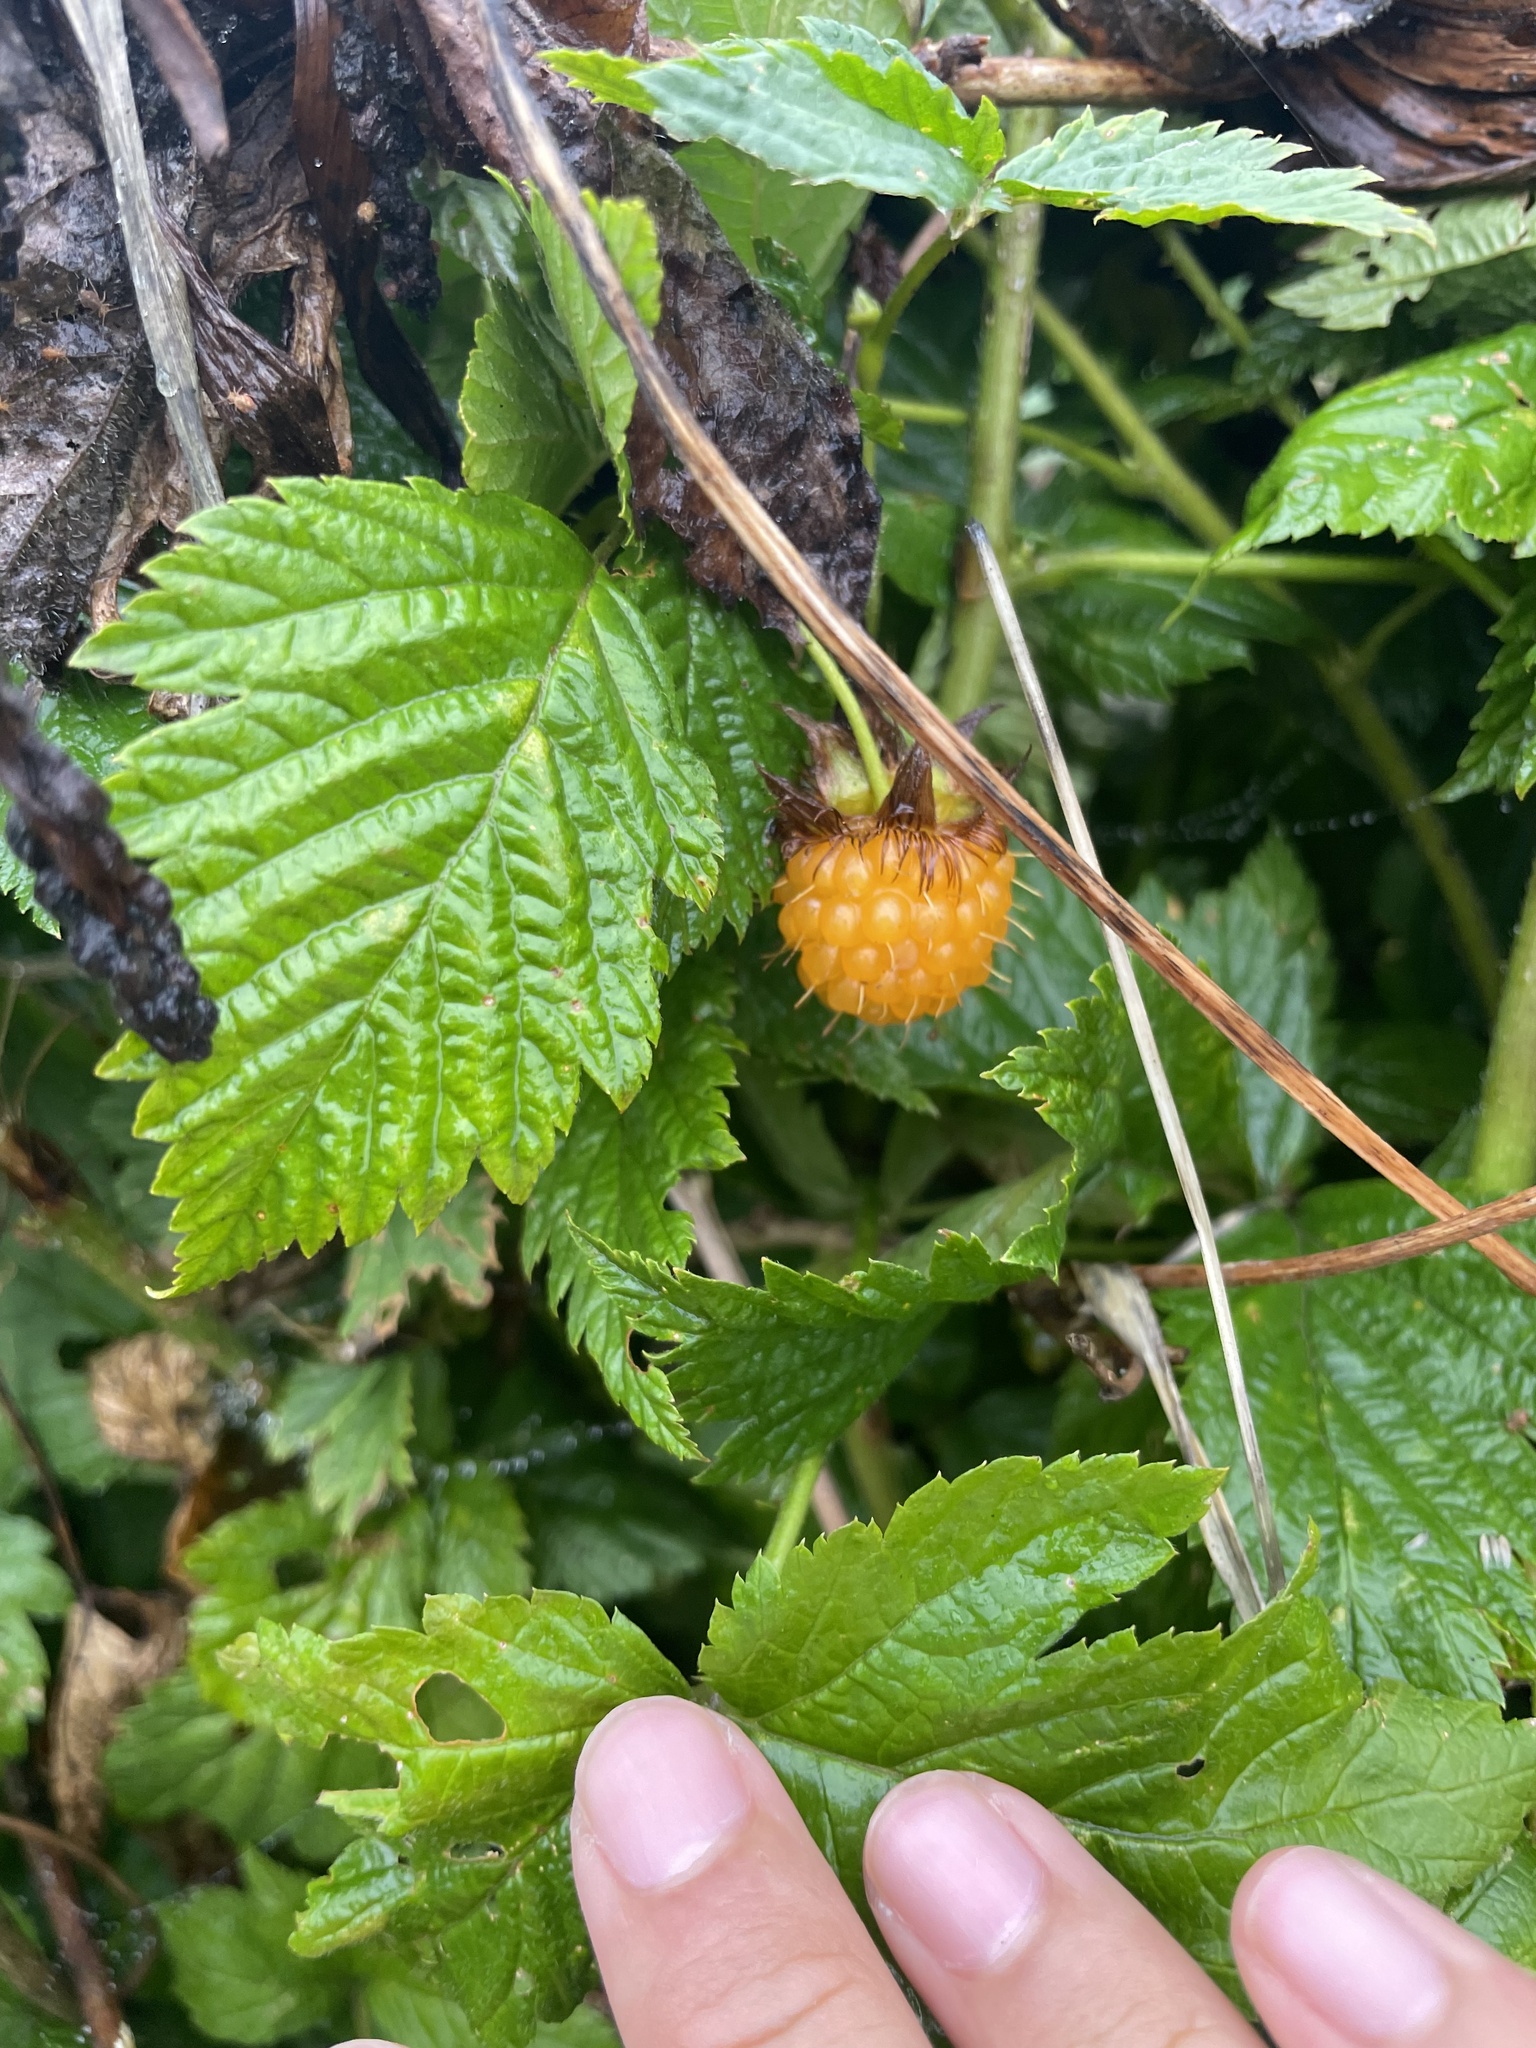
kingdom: Plantae
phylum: Tracheophyta
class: Magnoliopsida
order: Rosales
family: Rosaceae
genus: Rubus
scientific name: Rubus spectabilis
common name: Salmonberry
